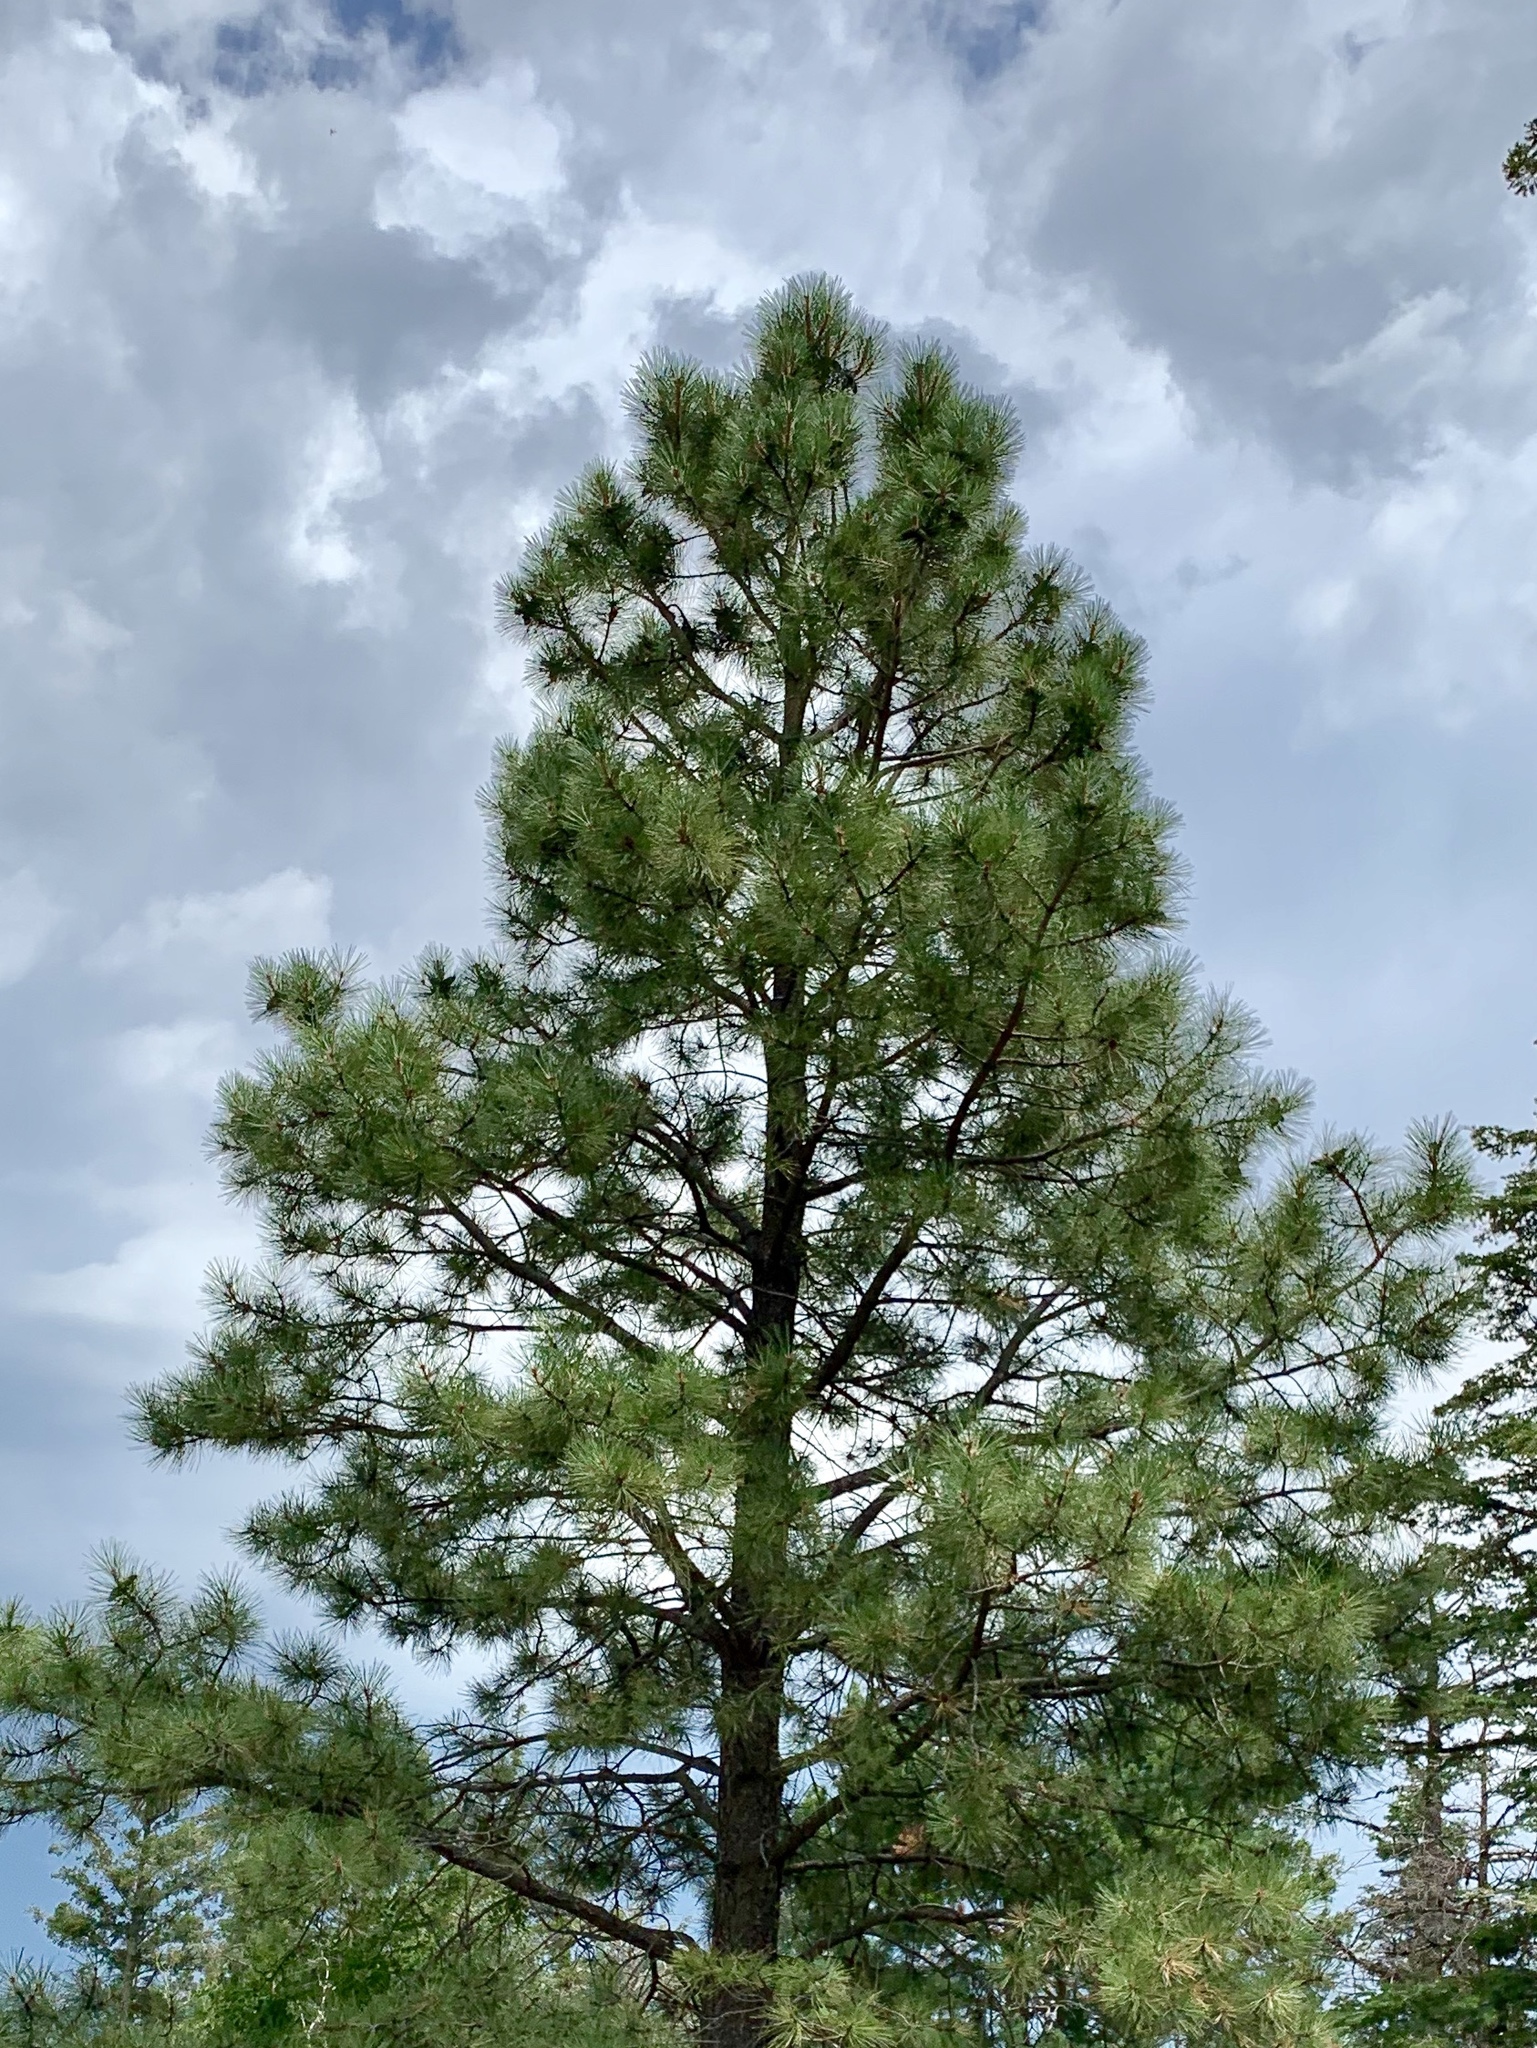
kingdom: Plantae
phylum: Tracheophyta
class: Pinopsida
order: Pinales
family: Pinaceae
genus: Pinus
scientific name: Pinus ponderosa
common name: Western yellow-pine
